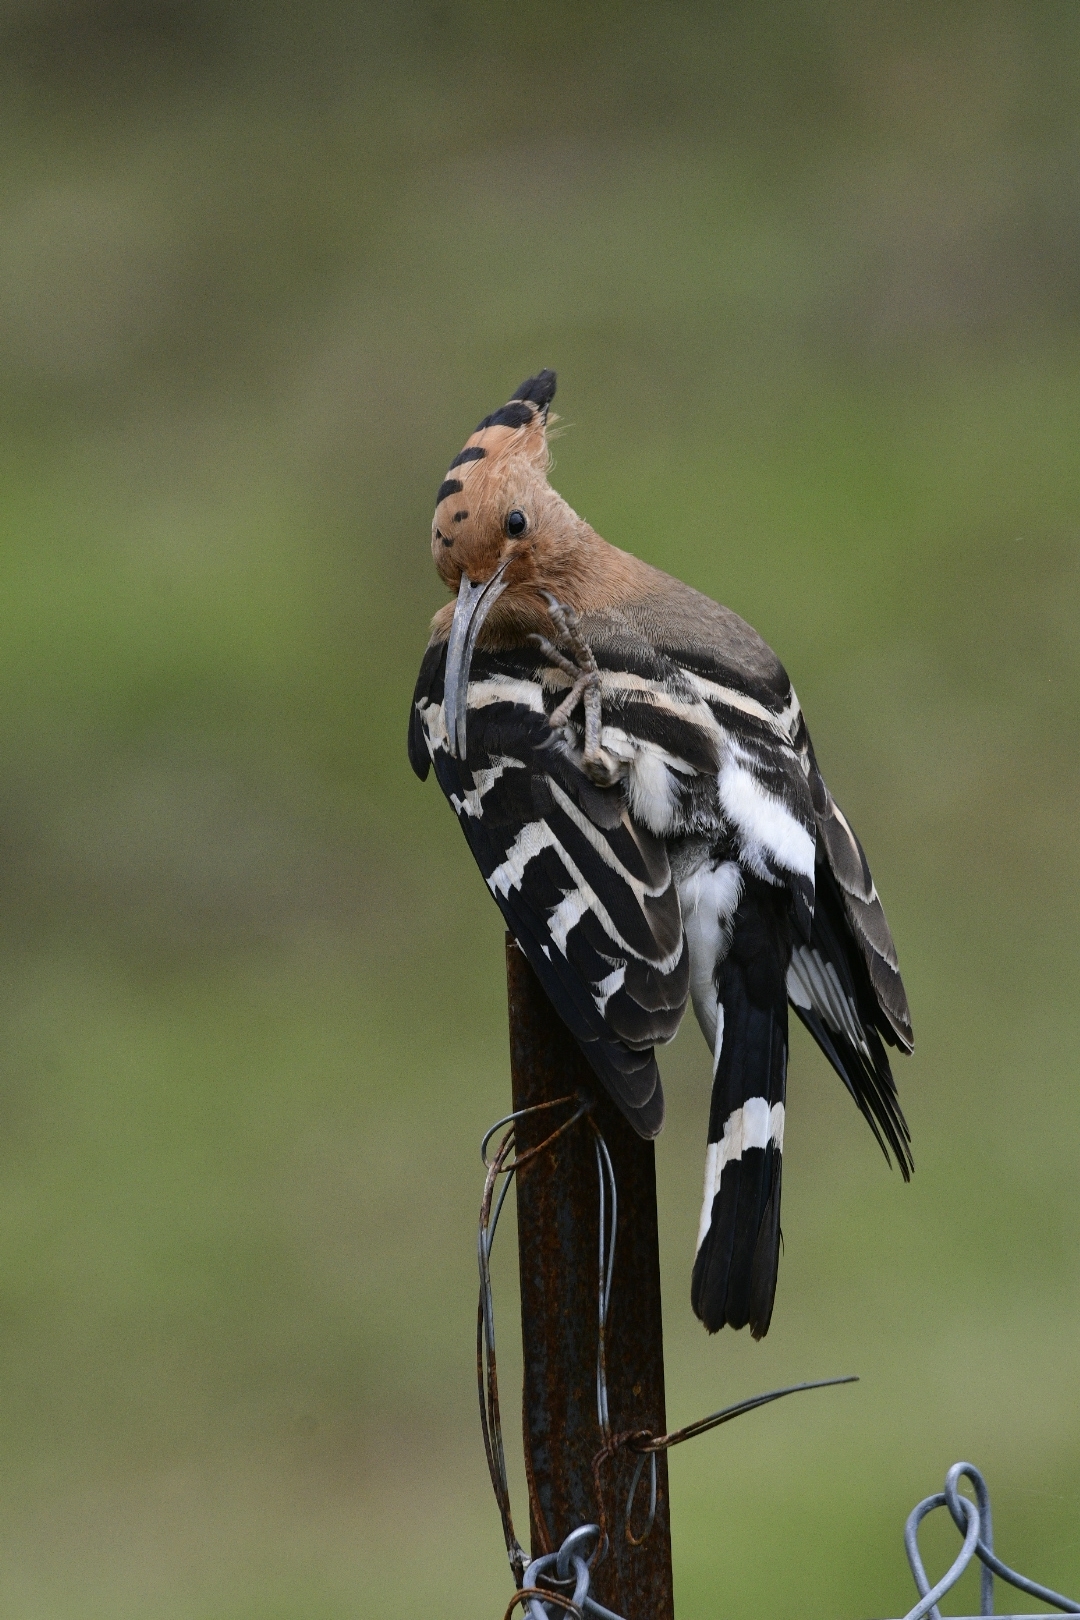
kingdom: Animalia
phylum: Chordata
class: Aves
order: Bucerotiformes
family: Upupidae
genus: Upupa
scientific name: Upupa epops
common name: Eurasian hoopoe
